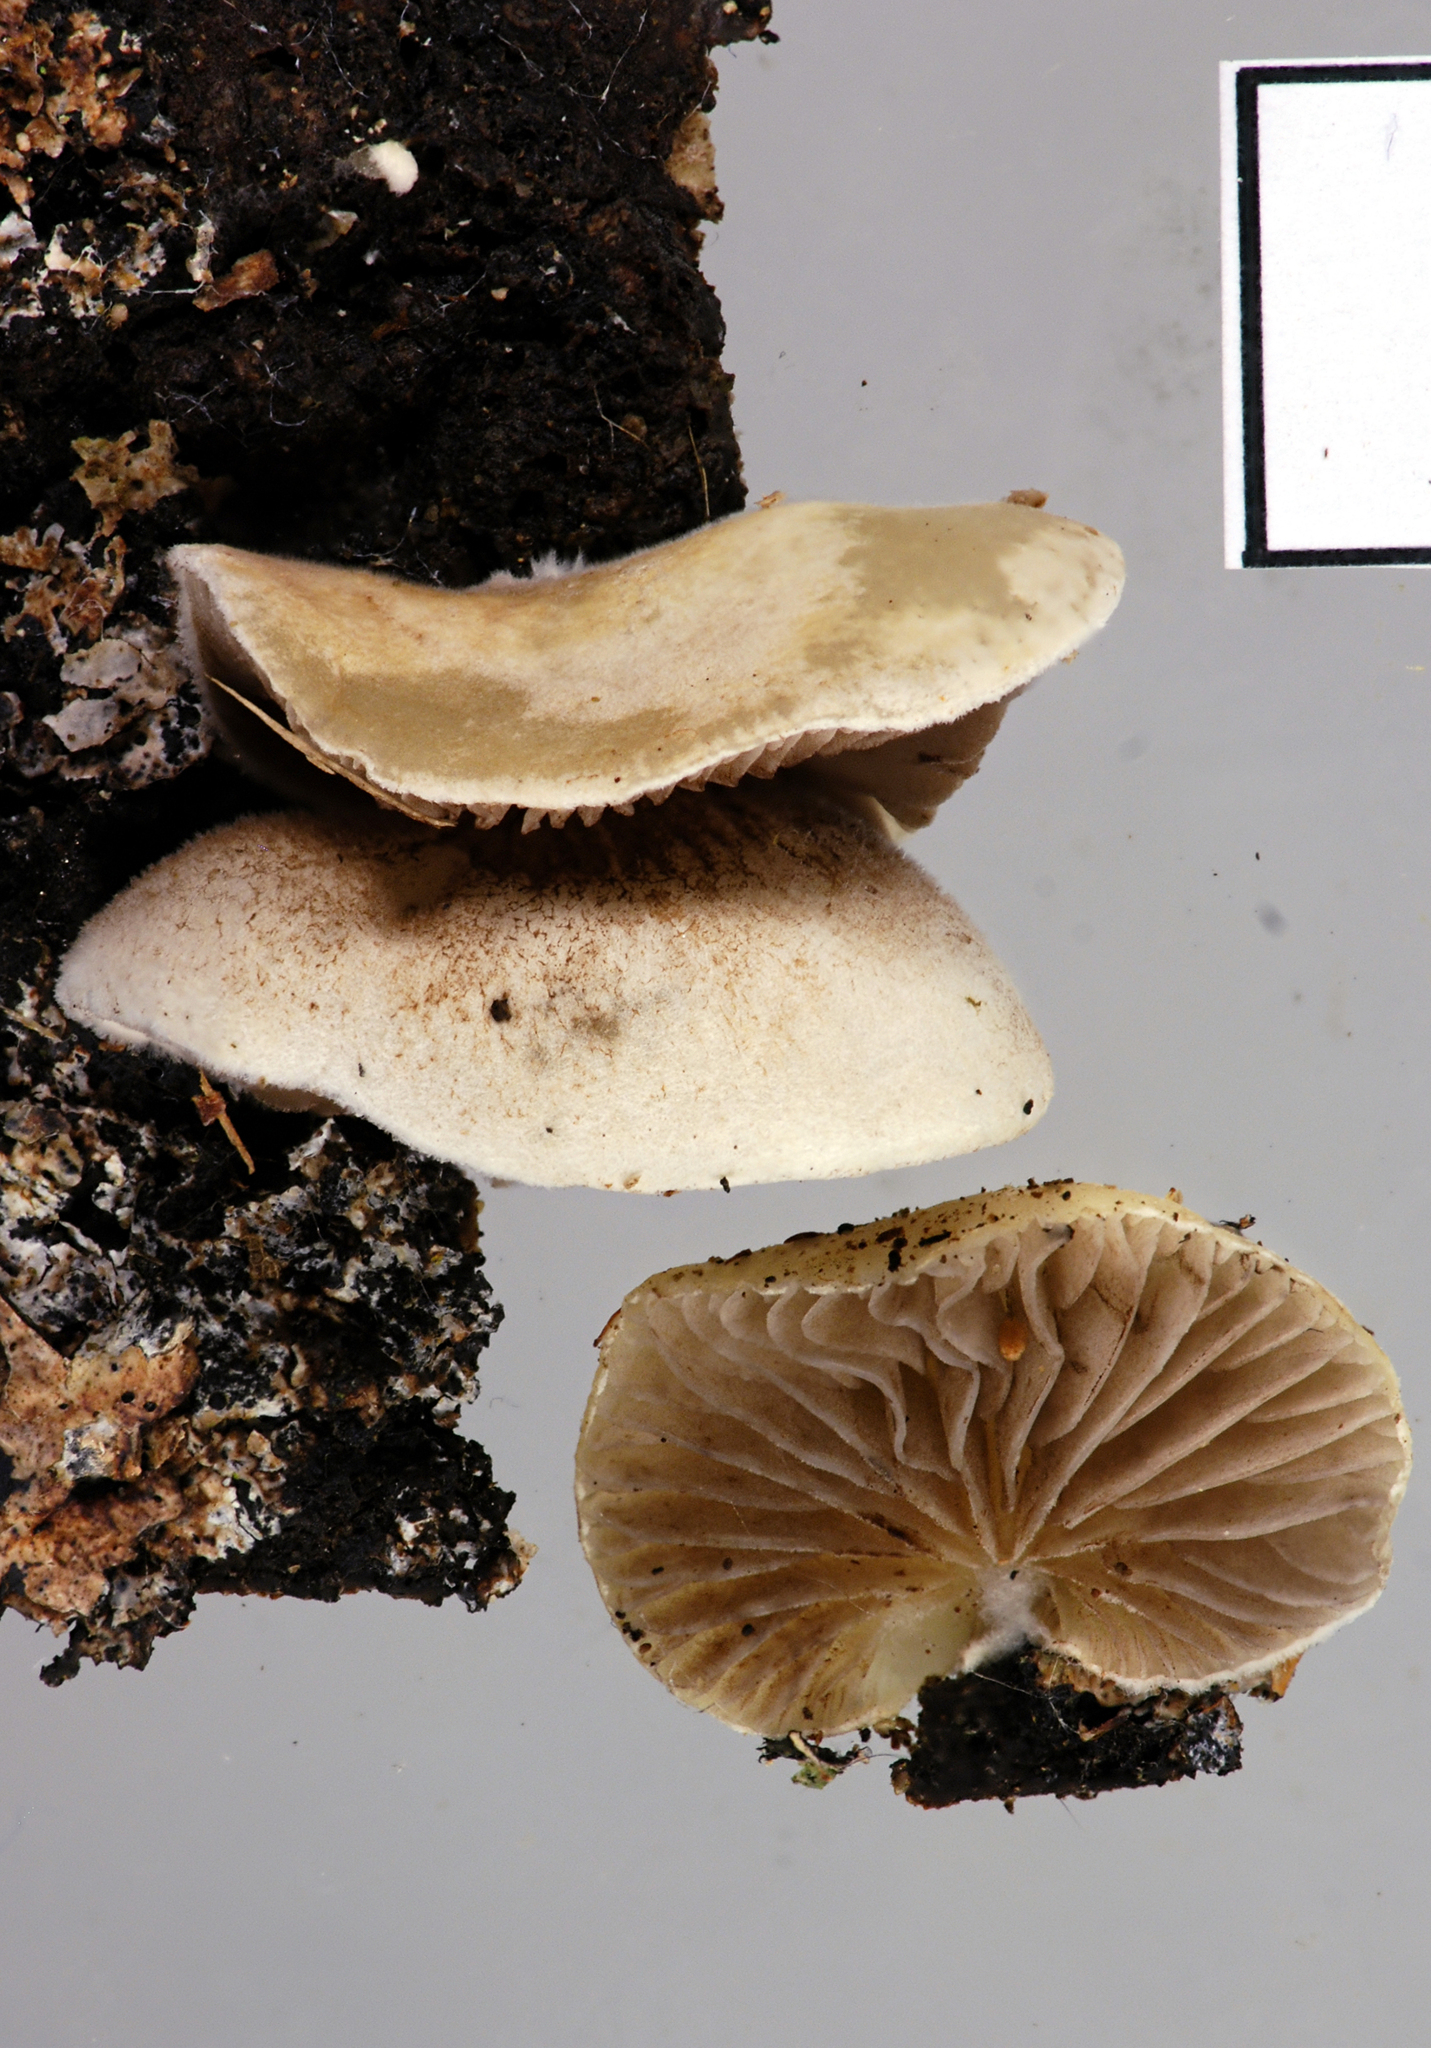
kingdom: Fungi
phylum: Basidiomycota
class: Agaricomycetes
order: Agaricales
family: Crepidotaceae
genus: Crepidotus
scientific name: Crepidotus novae-zelandiae
